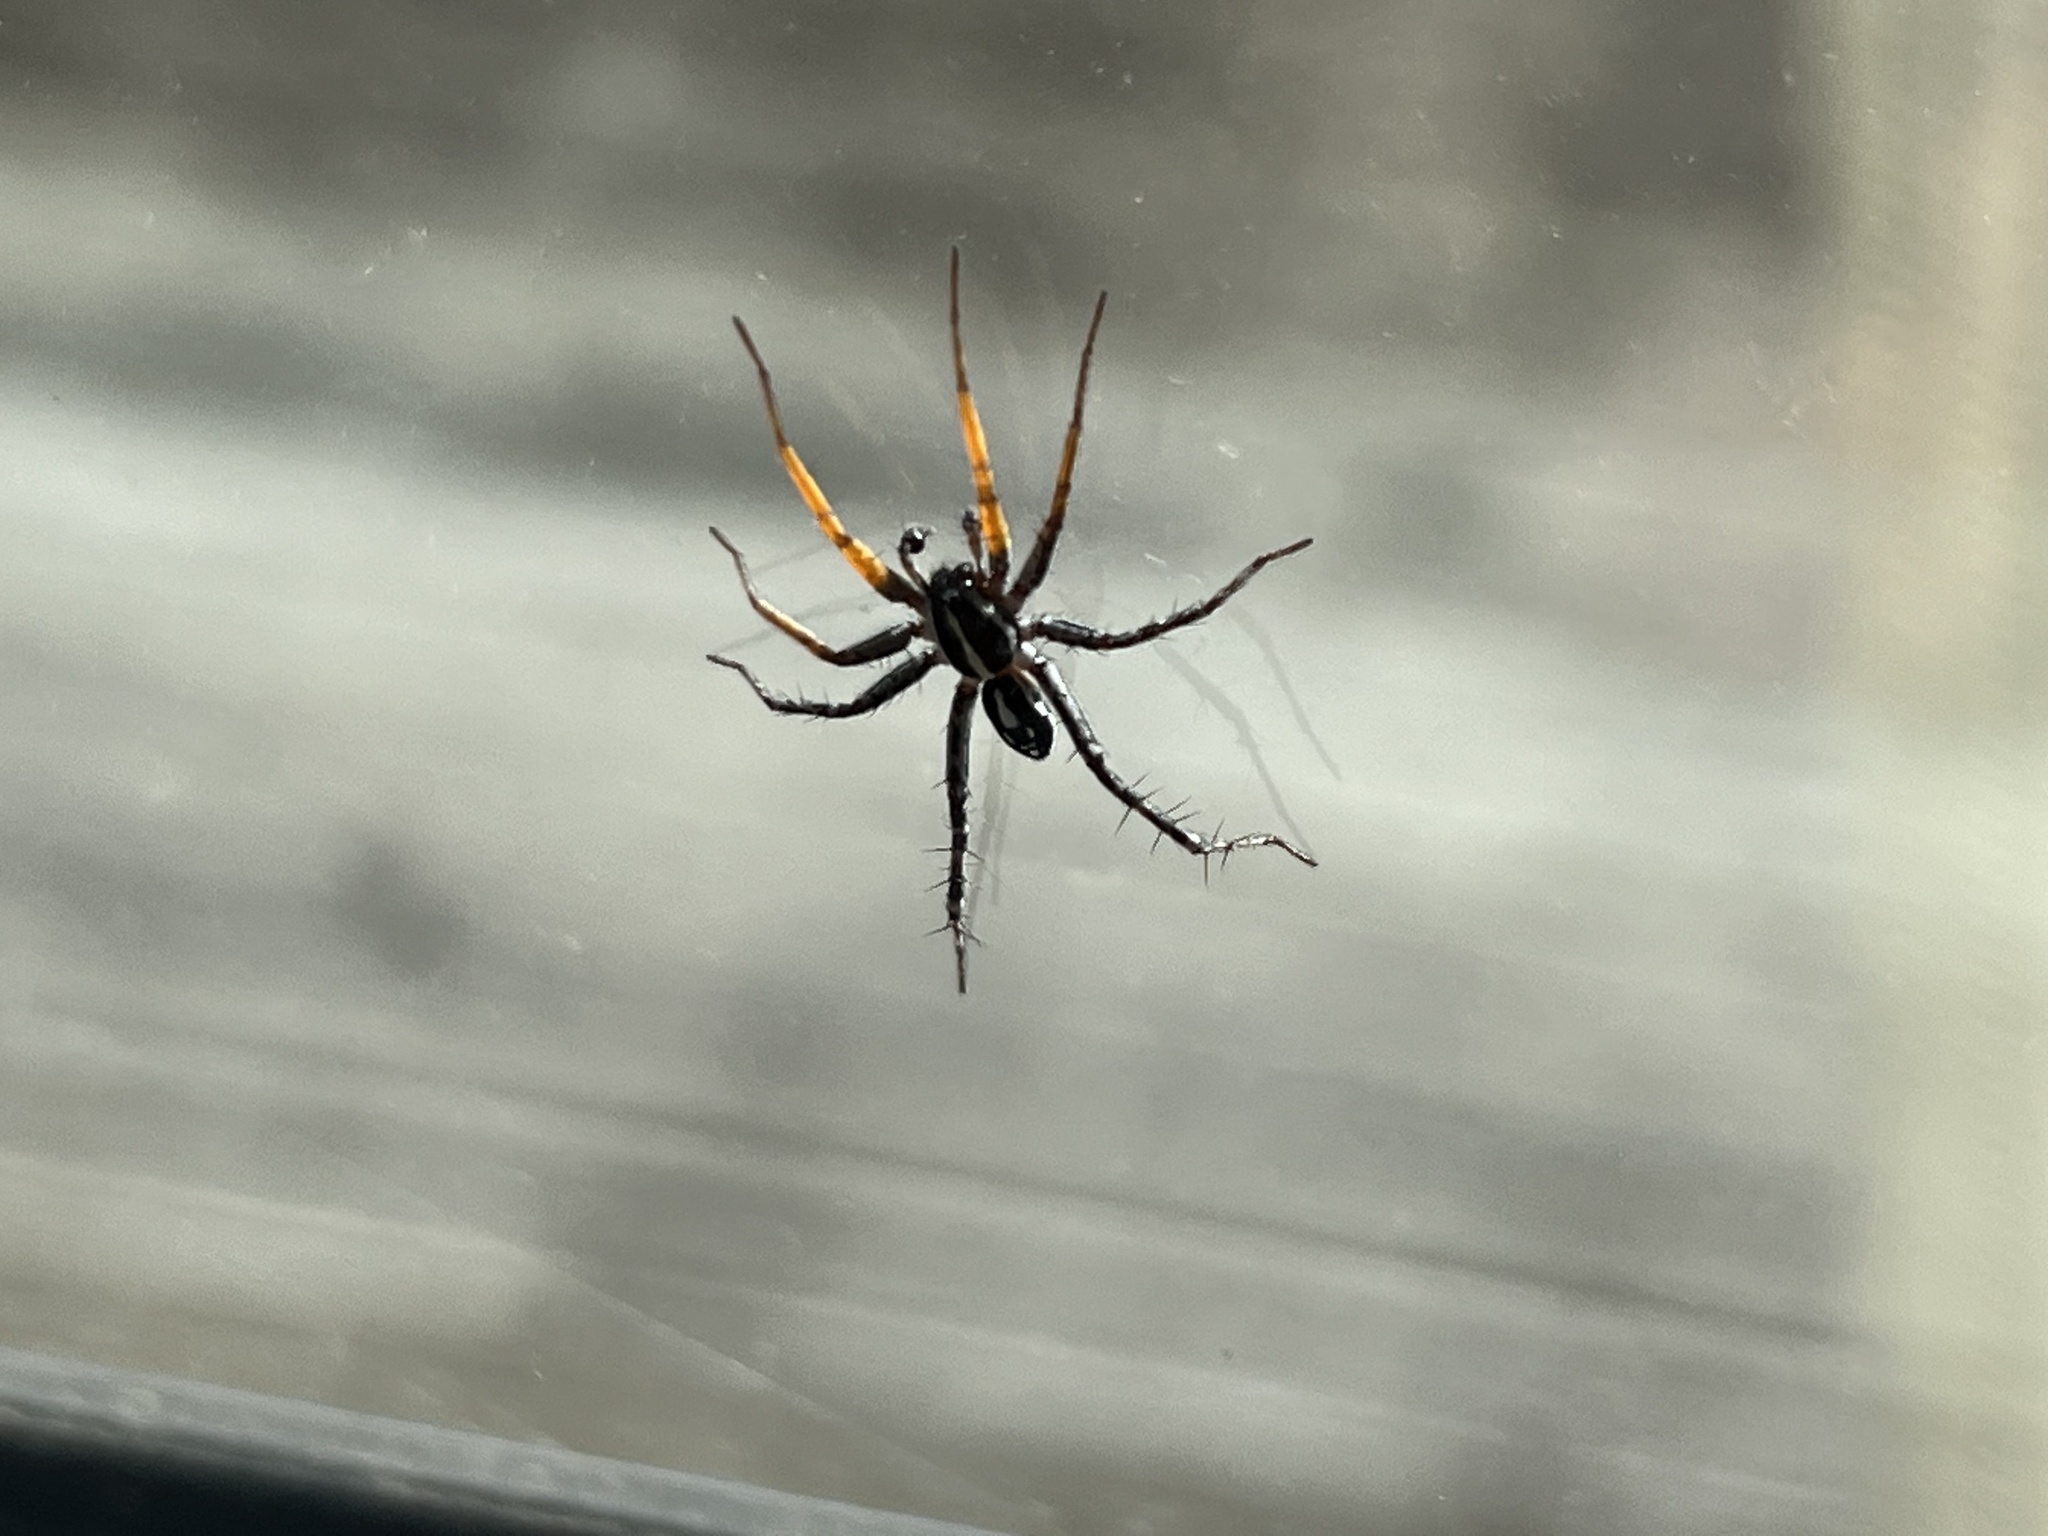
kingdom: Animalia
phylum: Arthropoda
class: Arachnida
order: Araneae
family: Corinnidae
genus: Nyssus
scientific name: Nyssus coloripes
